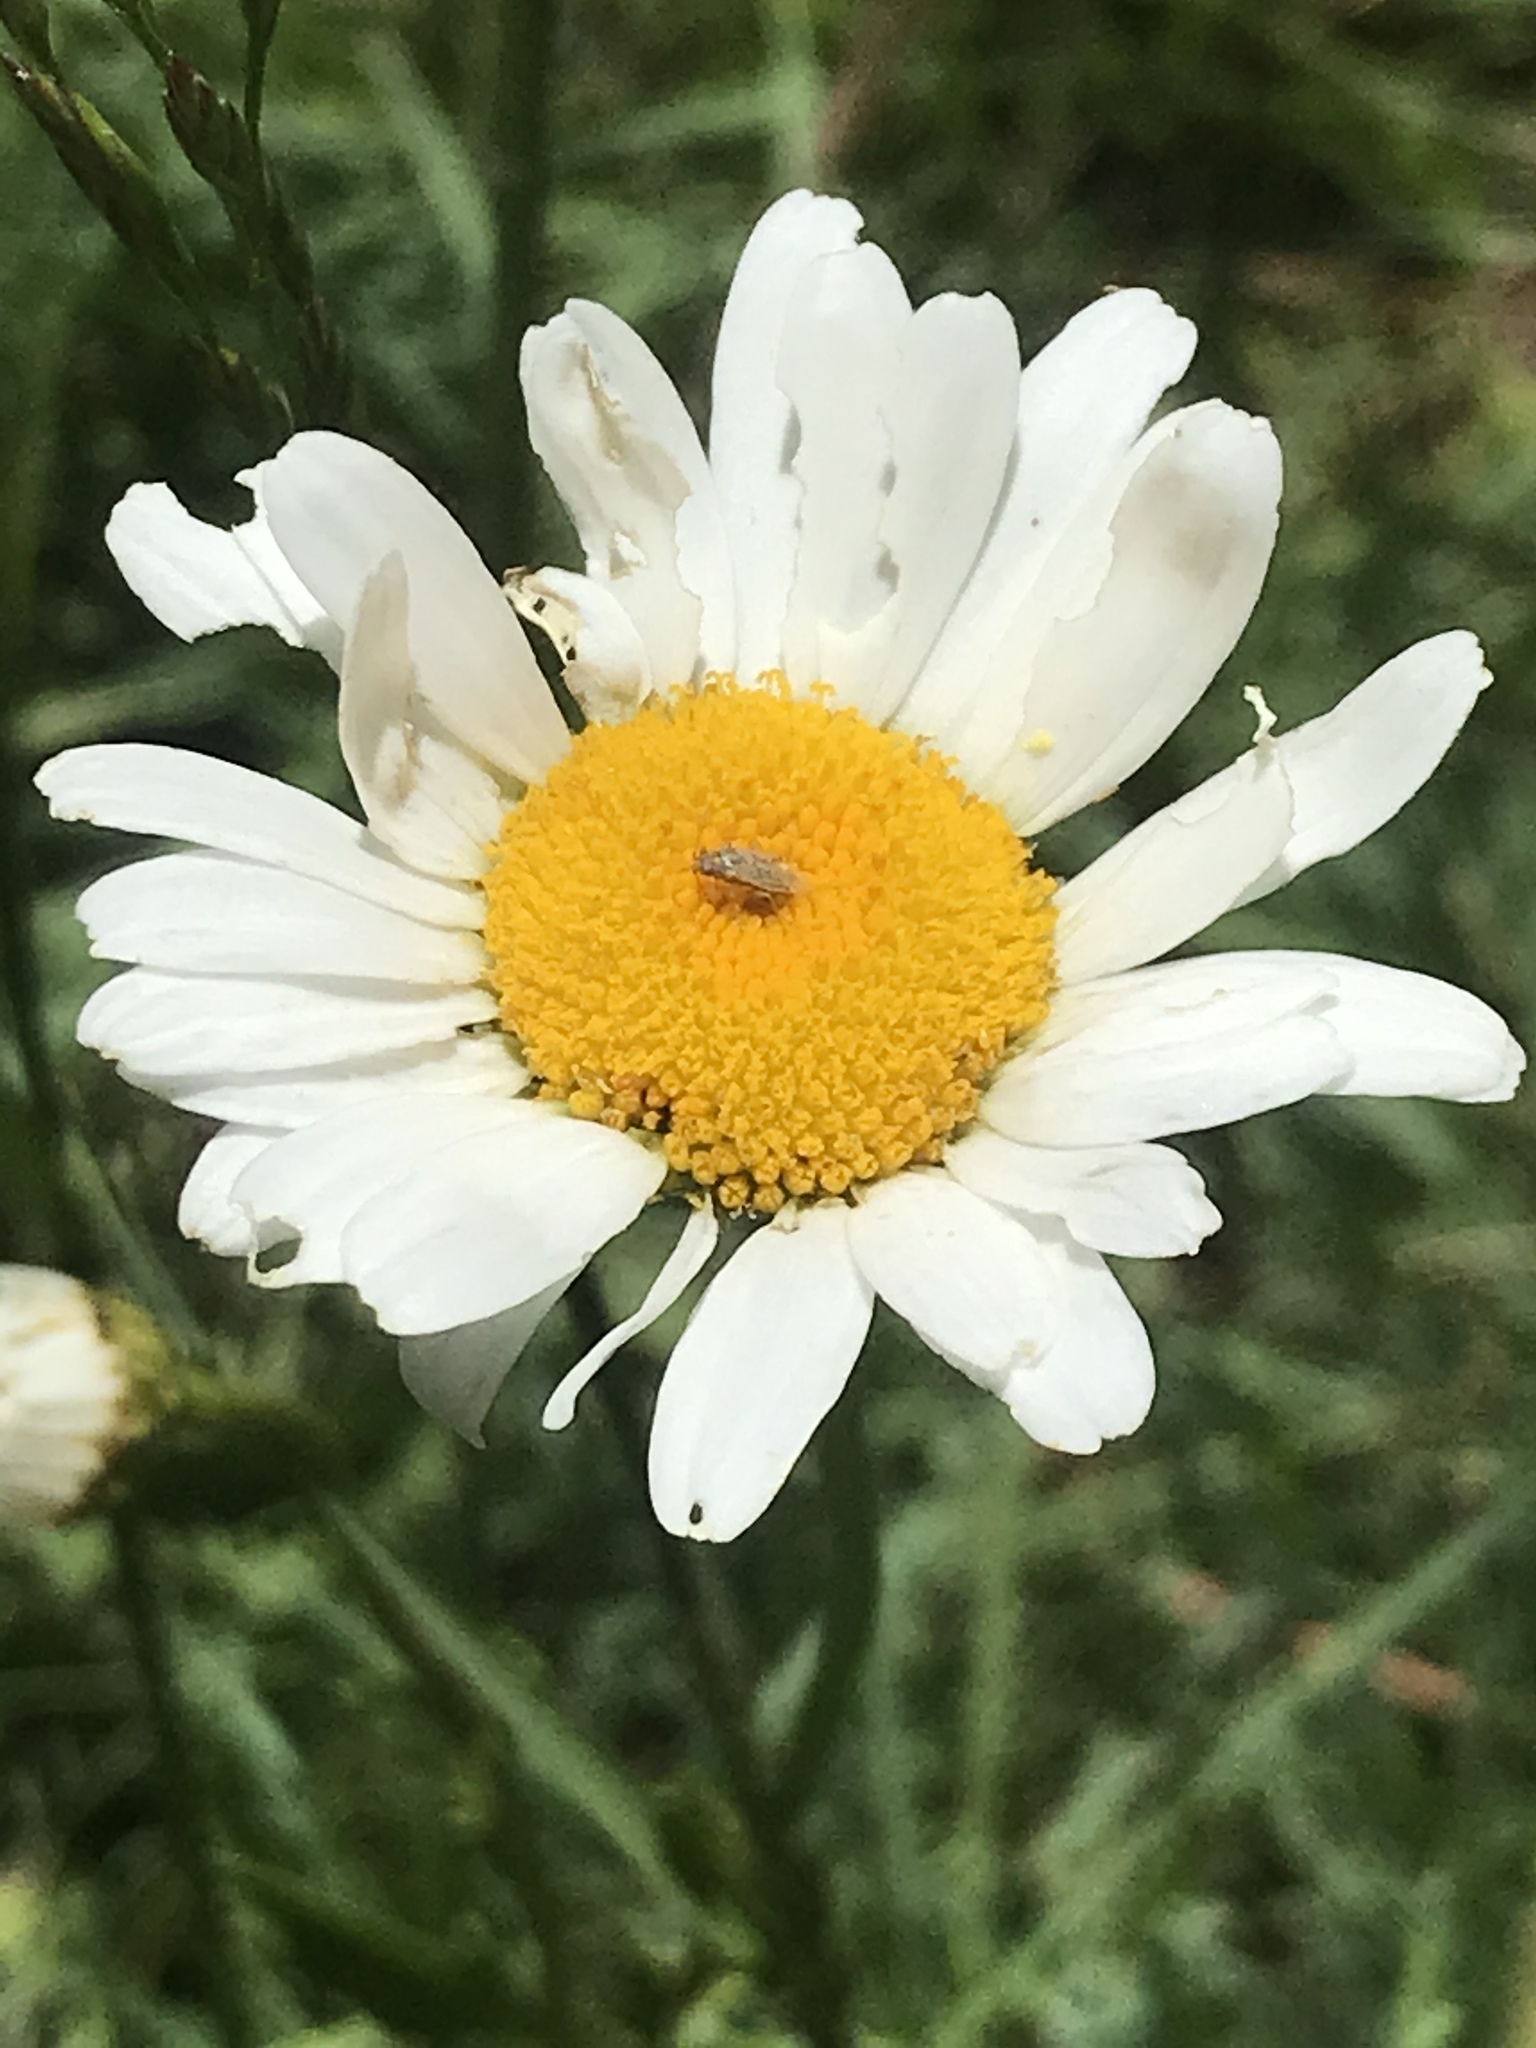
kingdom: Plantae
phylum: Tracheophyta
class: Magnoliopsida
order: Asterales
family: Asteraceae
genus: Leucanthemum
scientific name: Leucanthemum vulgare
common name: Oxeye daisy
